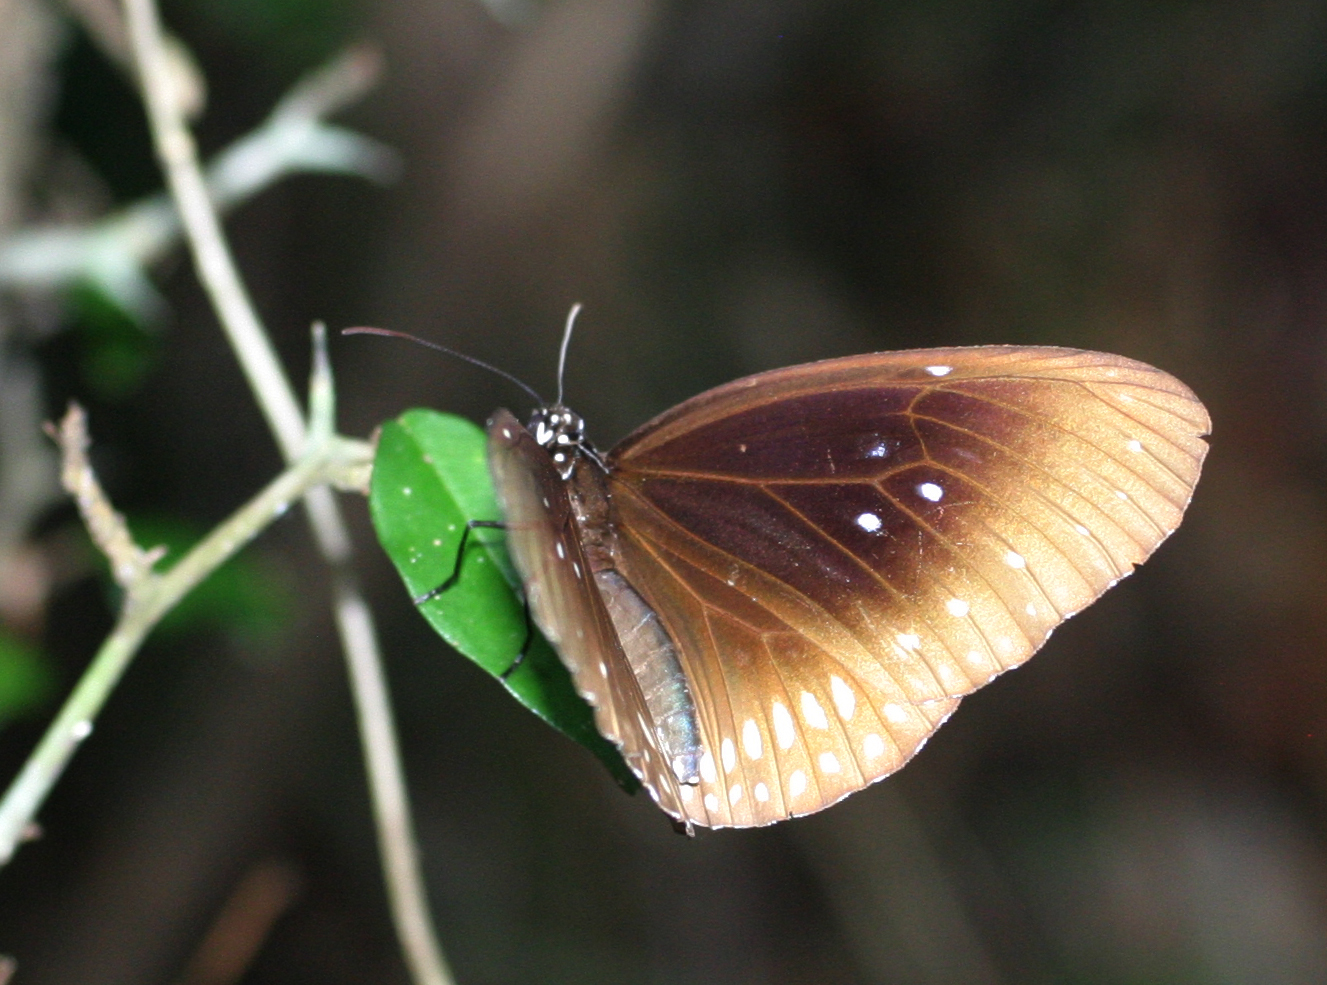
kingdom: Animalia
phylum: Arthropoda
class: Insecta
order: Lepidoptera
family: Nymphalidae
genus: Euploea
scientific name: Euploea core
